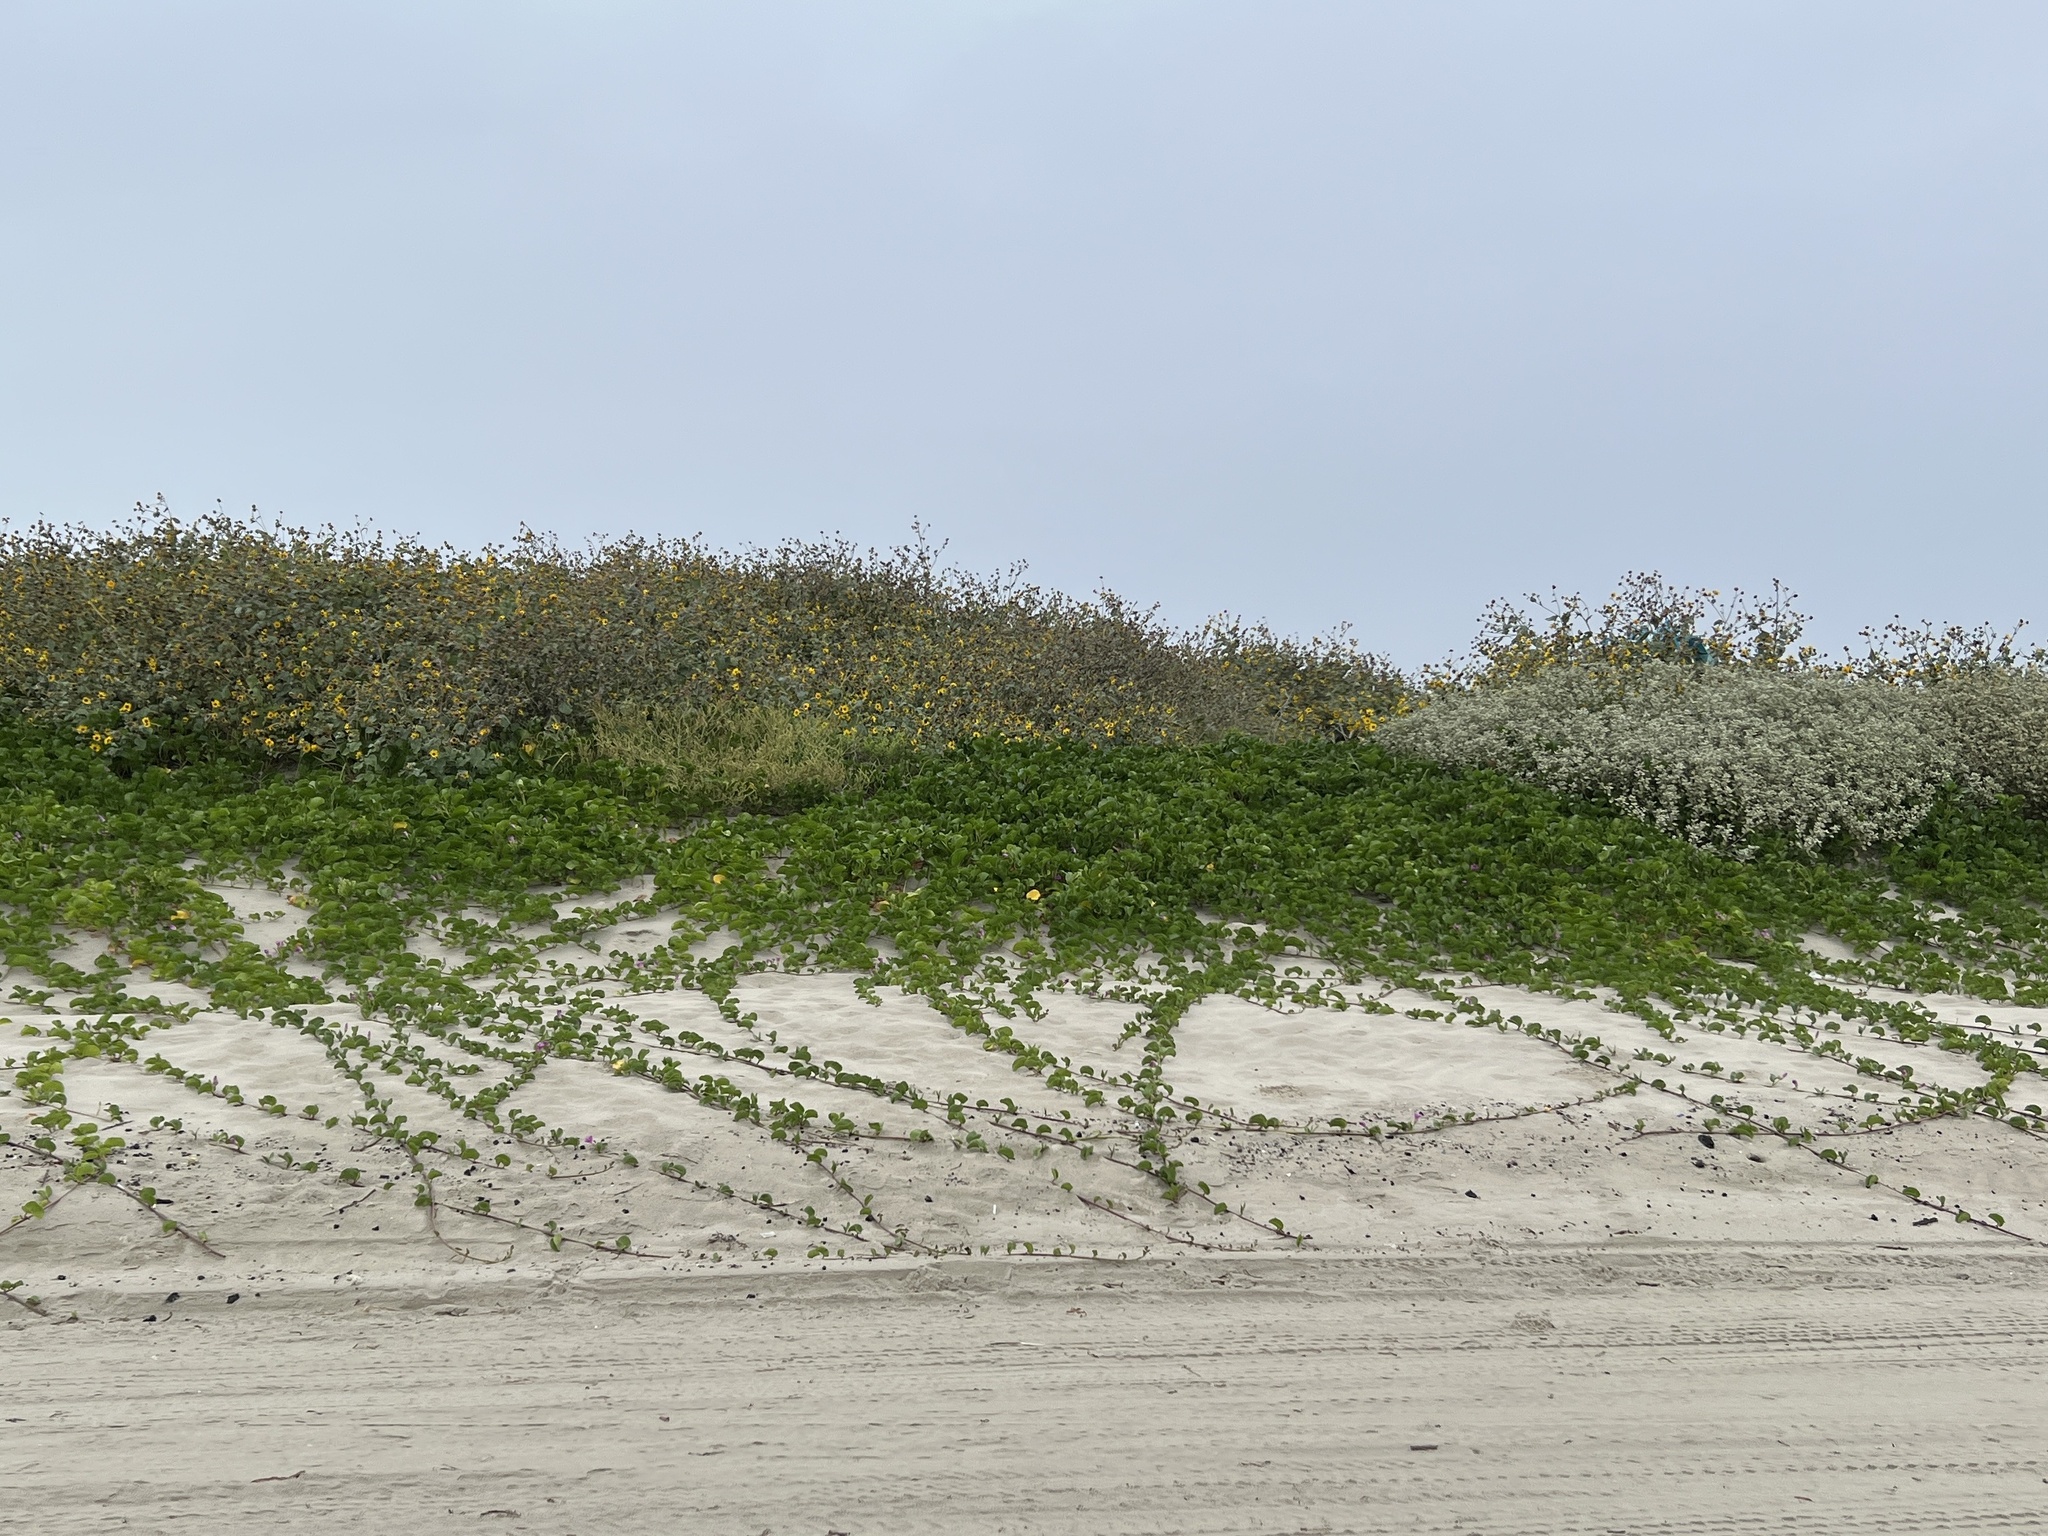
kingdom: Plantae
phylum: Tracheophyta
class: Magnoliopsida
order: Solanales
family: Convolvulaceae
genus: Ipomoea
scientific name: Ipomoea pes-caprae
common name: Beach morning glory
